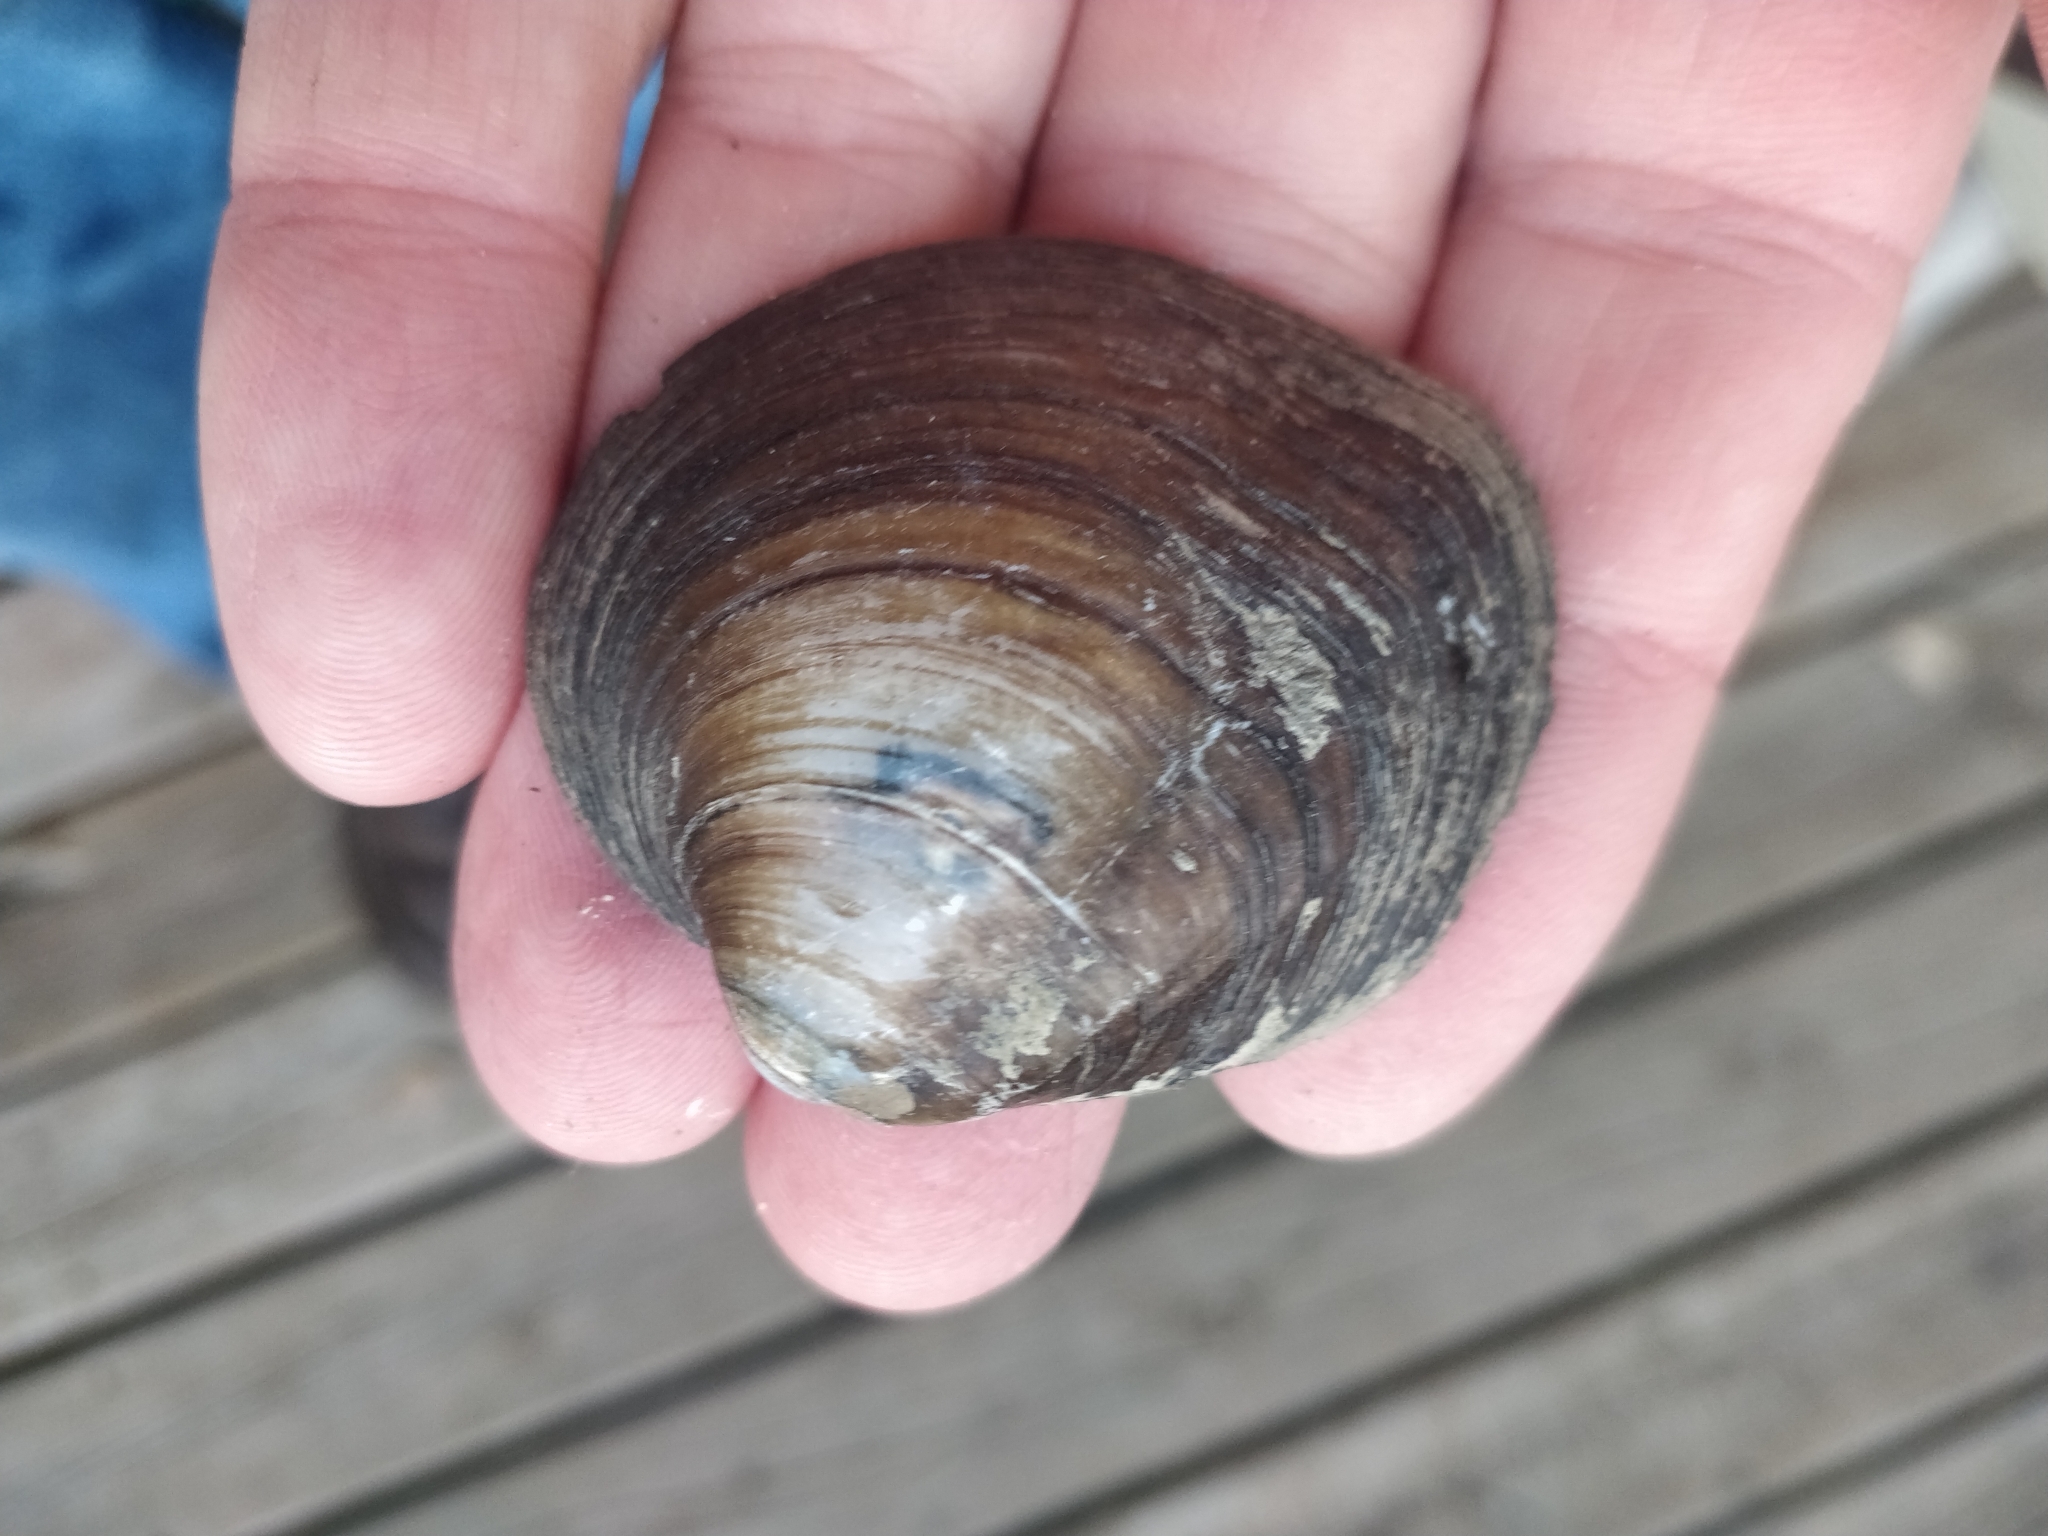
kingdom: Animalia
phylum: Mollusca
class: Bivalvia
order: Unionida
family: Unionidae
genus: Cyclonaias
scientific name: Cyclonaias pustulosa
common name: Pimpleback
